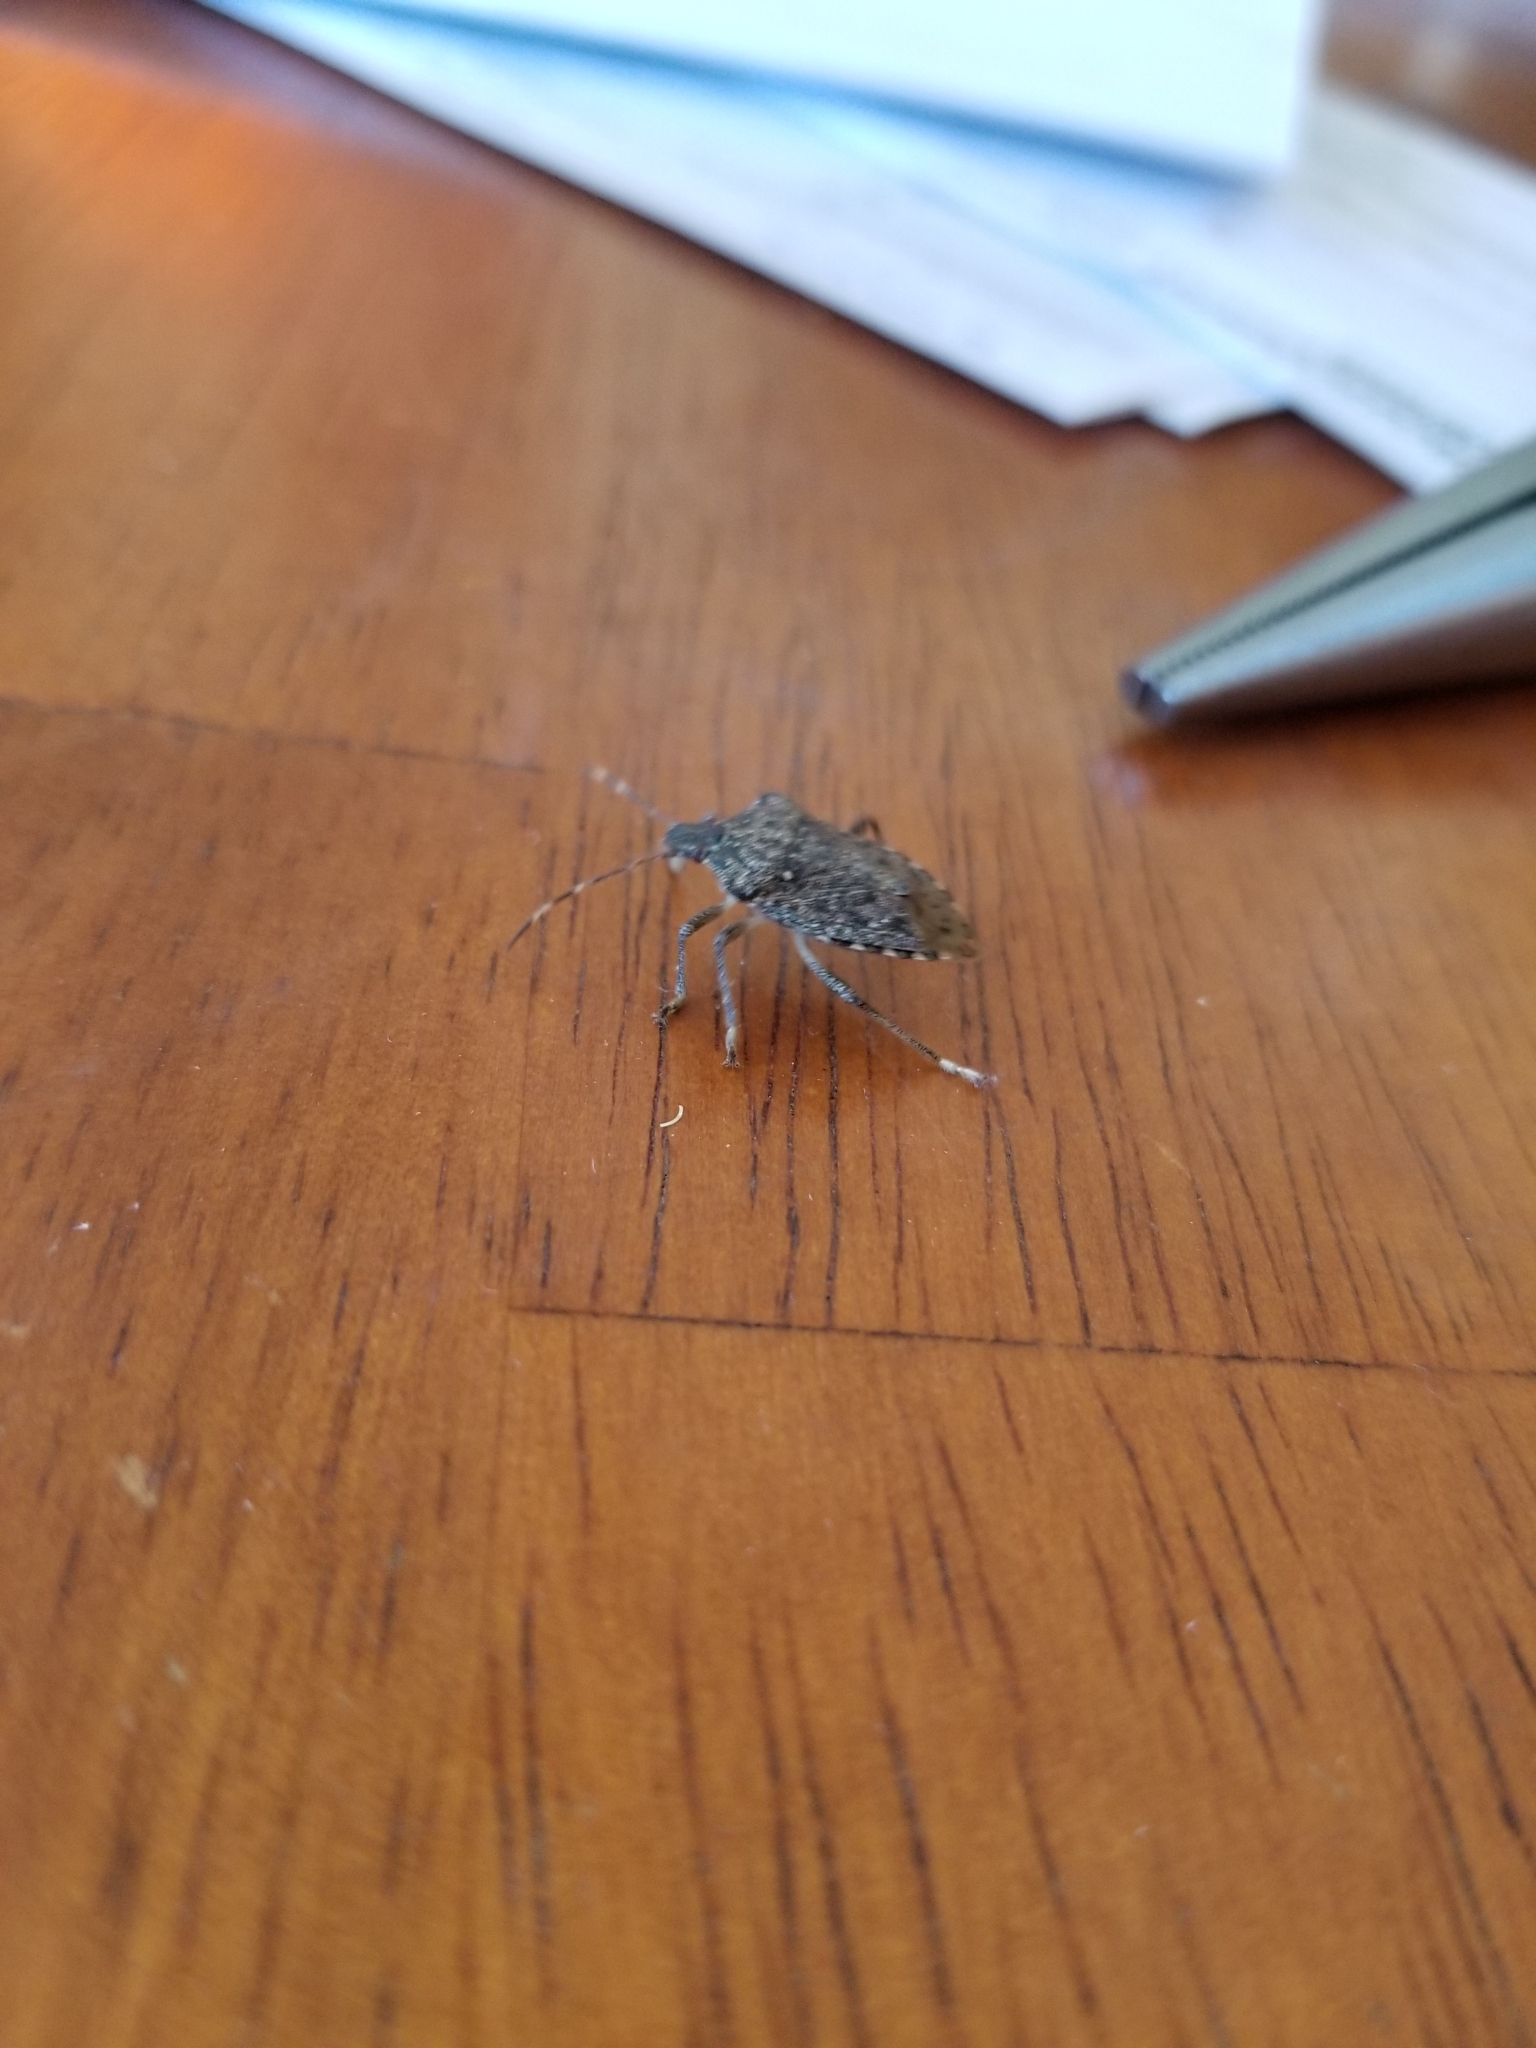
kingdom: Animalia
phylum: Arthropoda
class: Insecta
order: Hemiptera
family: Pentatomidae
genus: Halyomorpha
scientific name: Halyomorpha halys
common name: Brown marmorated stink bug
